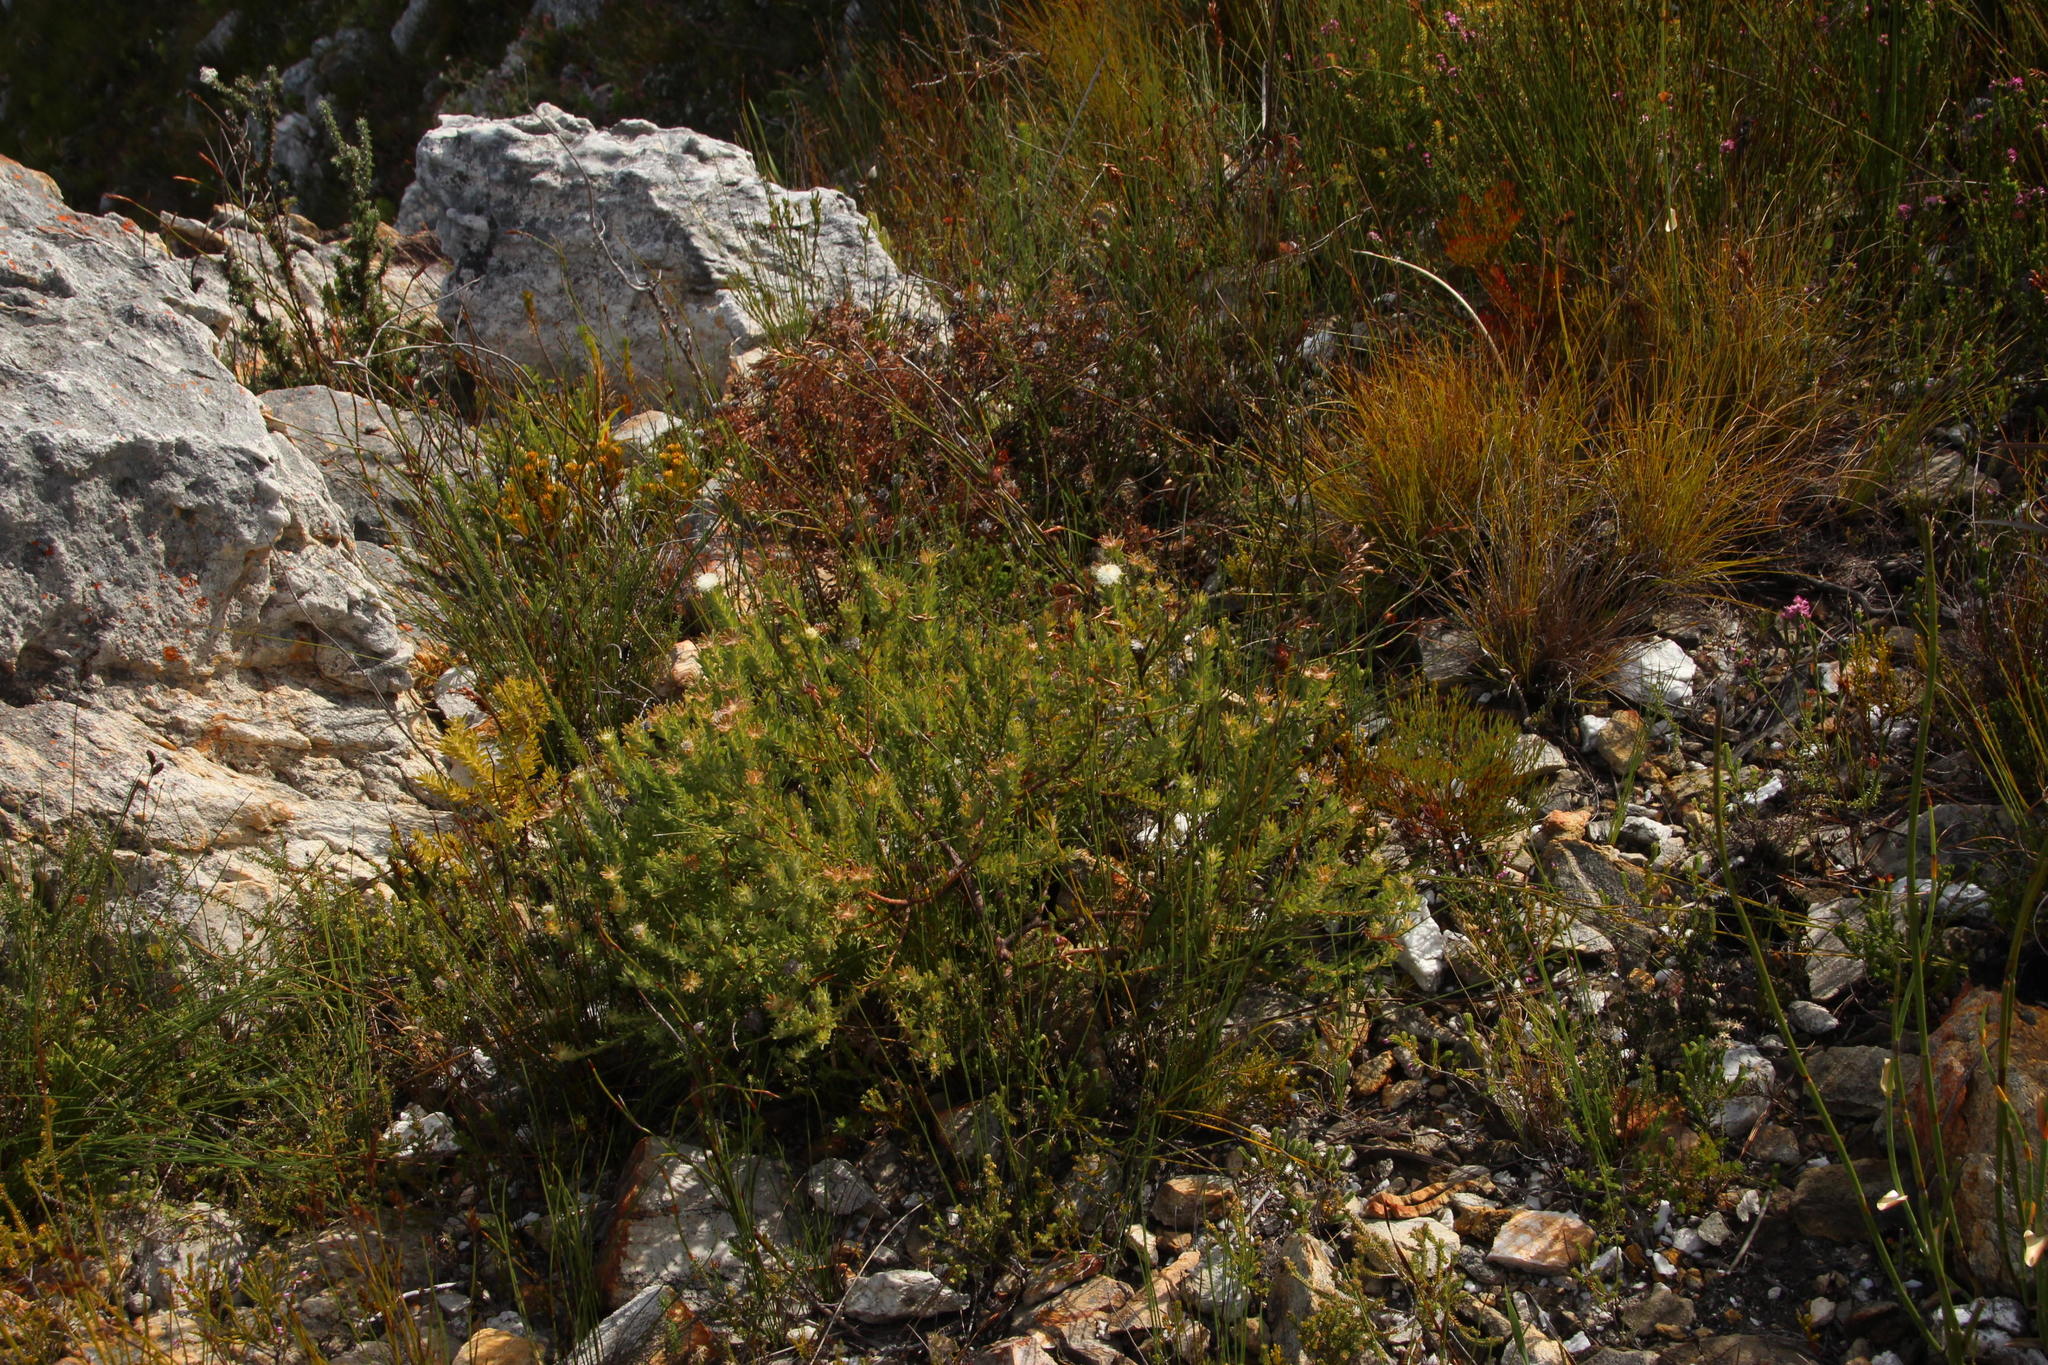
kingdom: Plantae
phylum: Tracheophyta
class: Magnoliopsida
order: Proteales
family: Proteaceae
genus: Diastella
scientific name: Diastella fraterna
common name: Palmiet silkypuff
